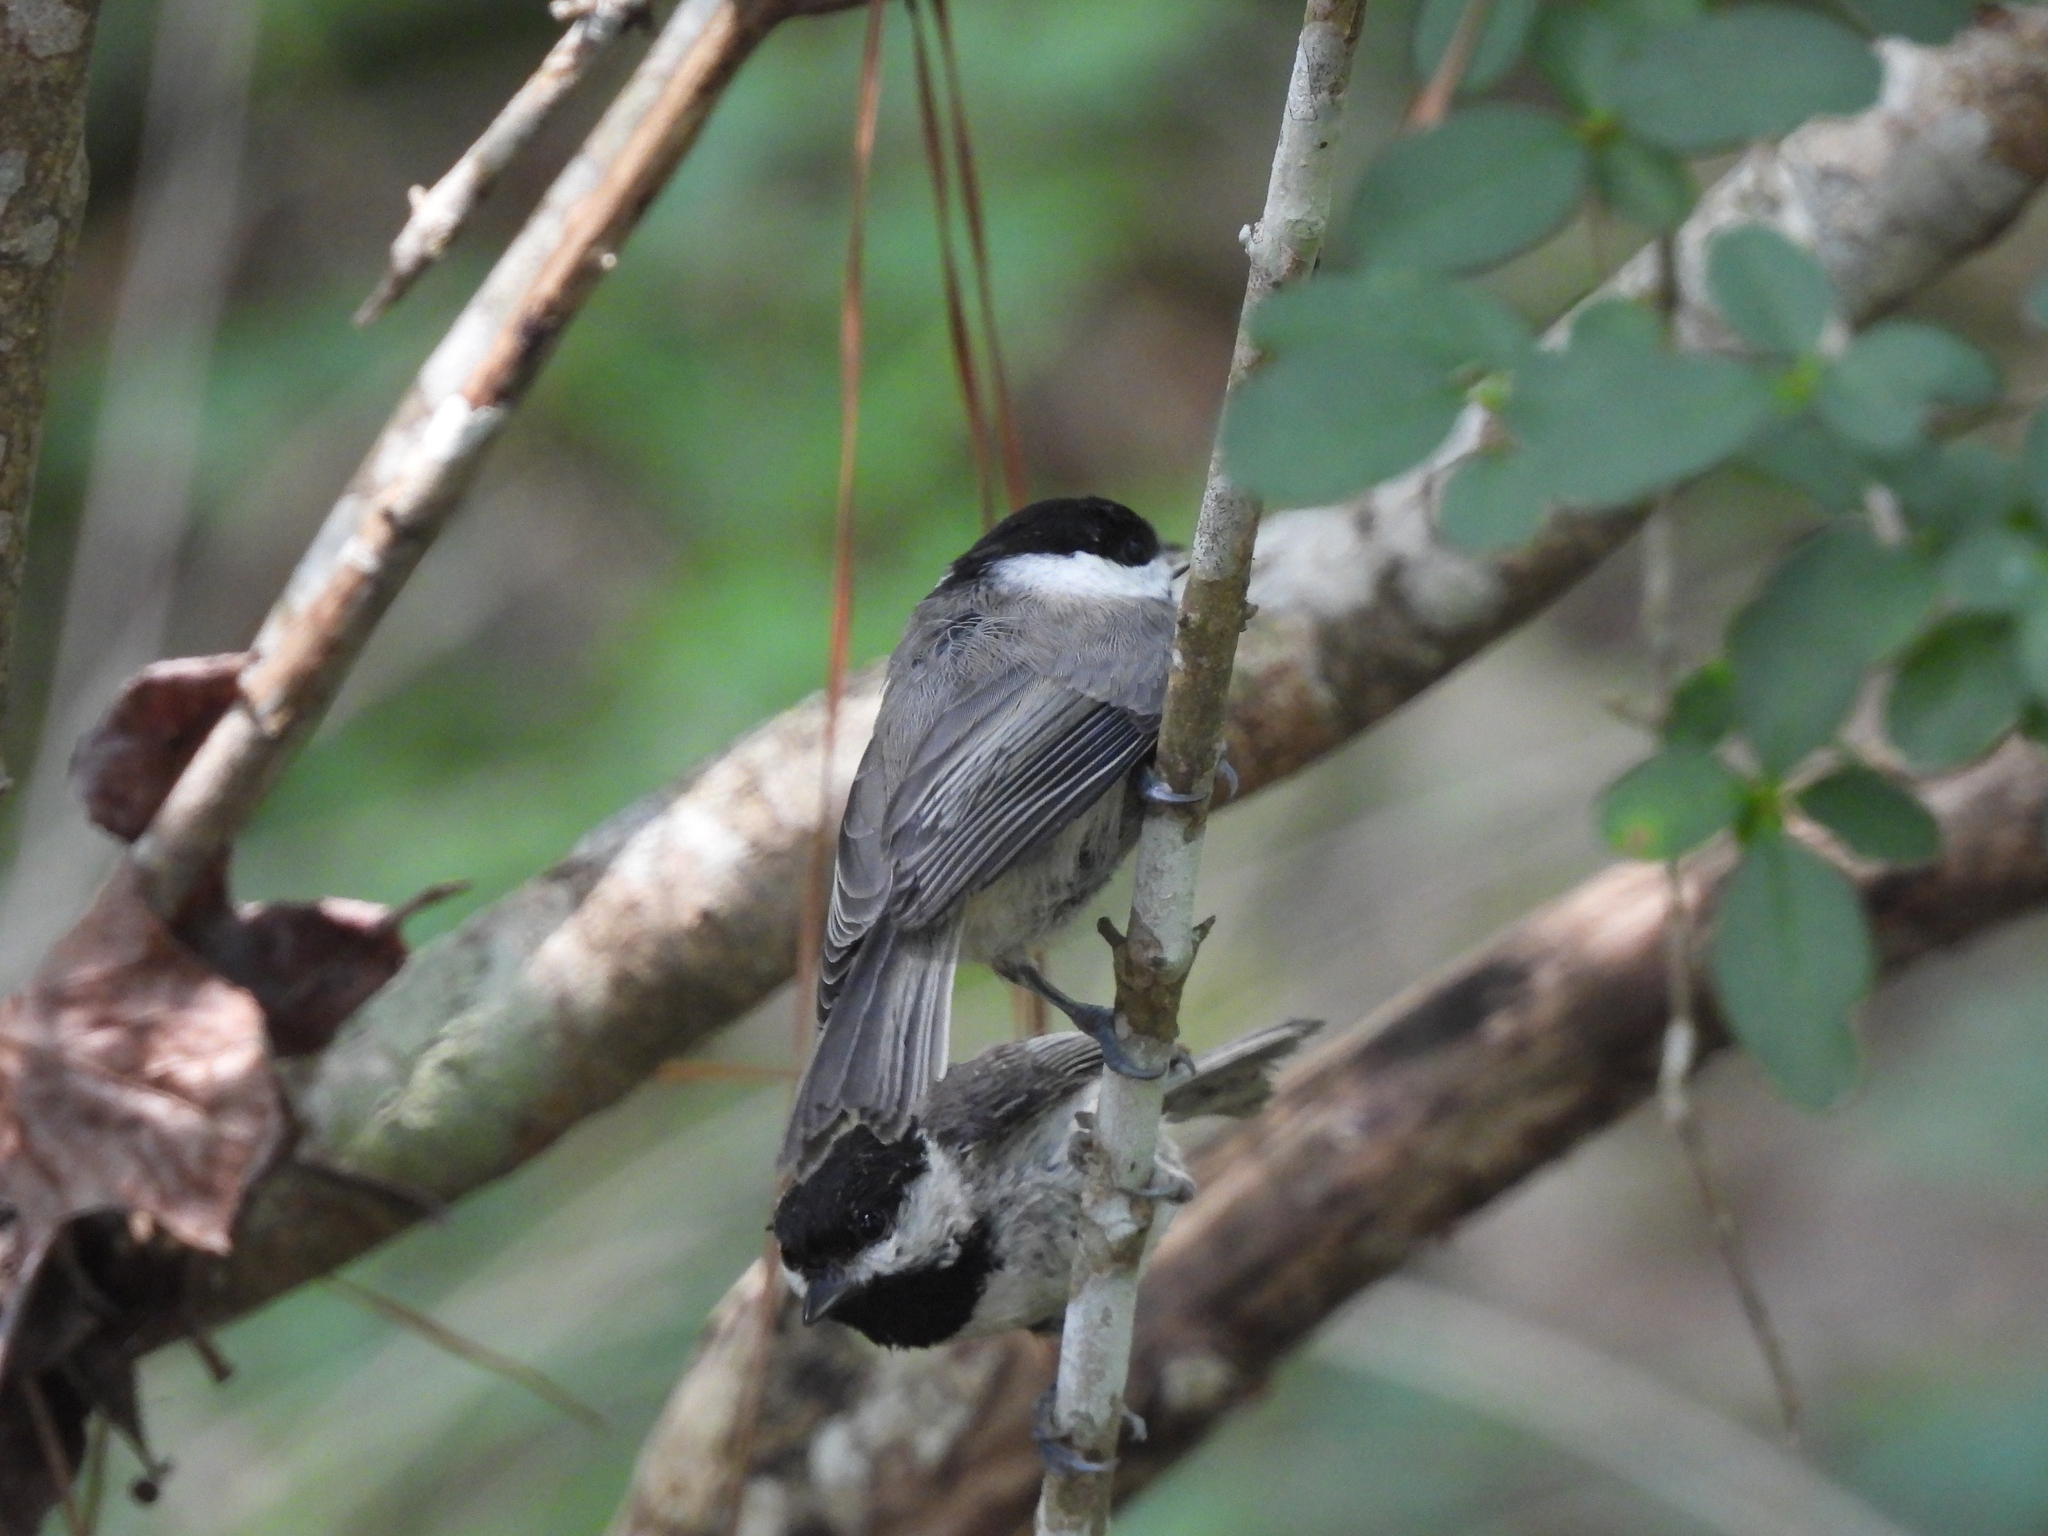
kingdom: Animalia
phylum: Chordata
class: Aves
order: Passeriformes
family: Paridae
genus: Poecile
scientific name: Poecile carolinensis
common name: Carolina chickadee
